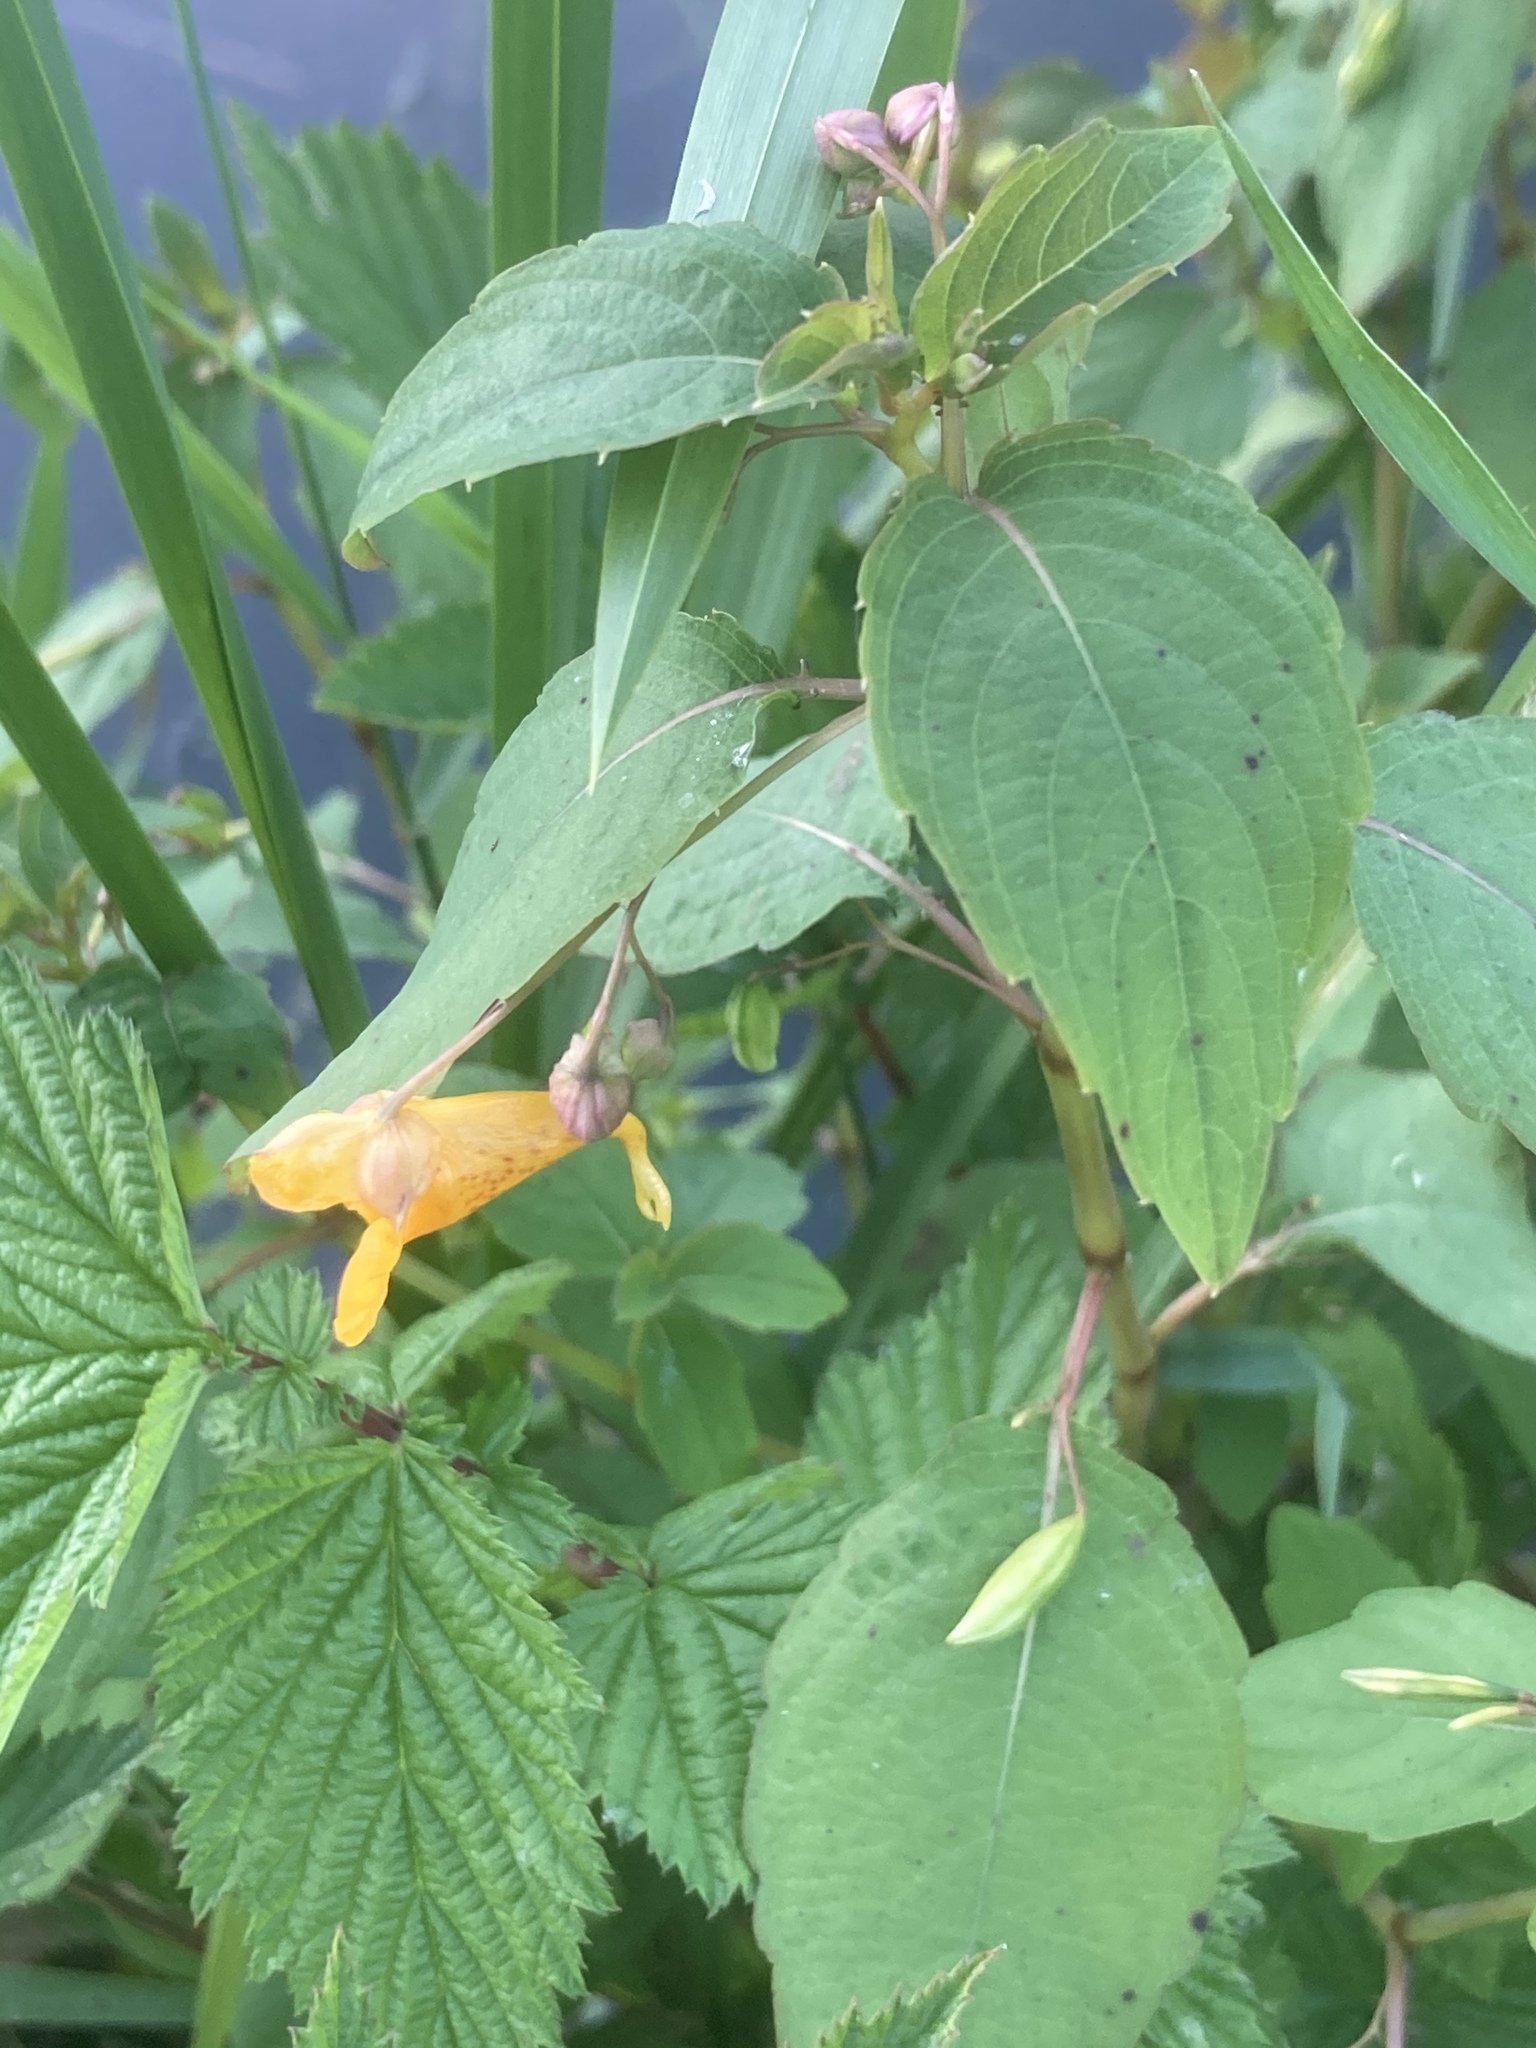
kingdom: Plantae
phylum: Tracheophyta
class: Magnoliopsida
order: Ericales
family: Balsaminaceae
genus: Impatiens
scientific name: Impatiens capensis
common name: Orange balsam
